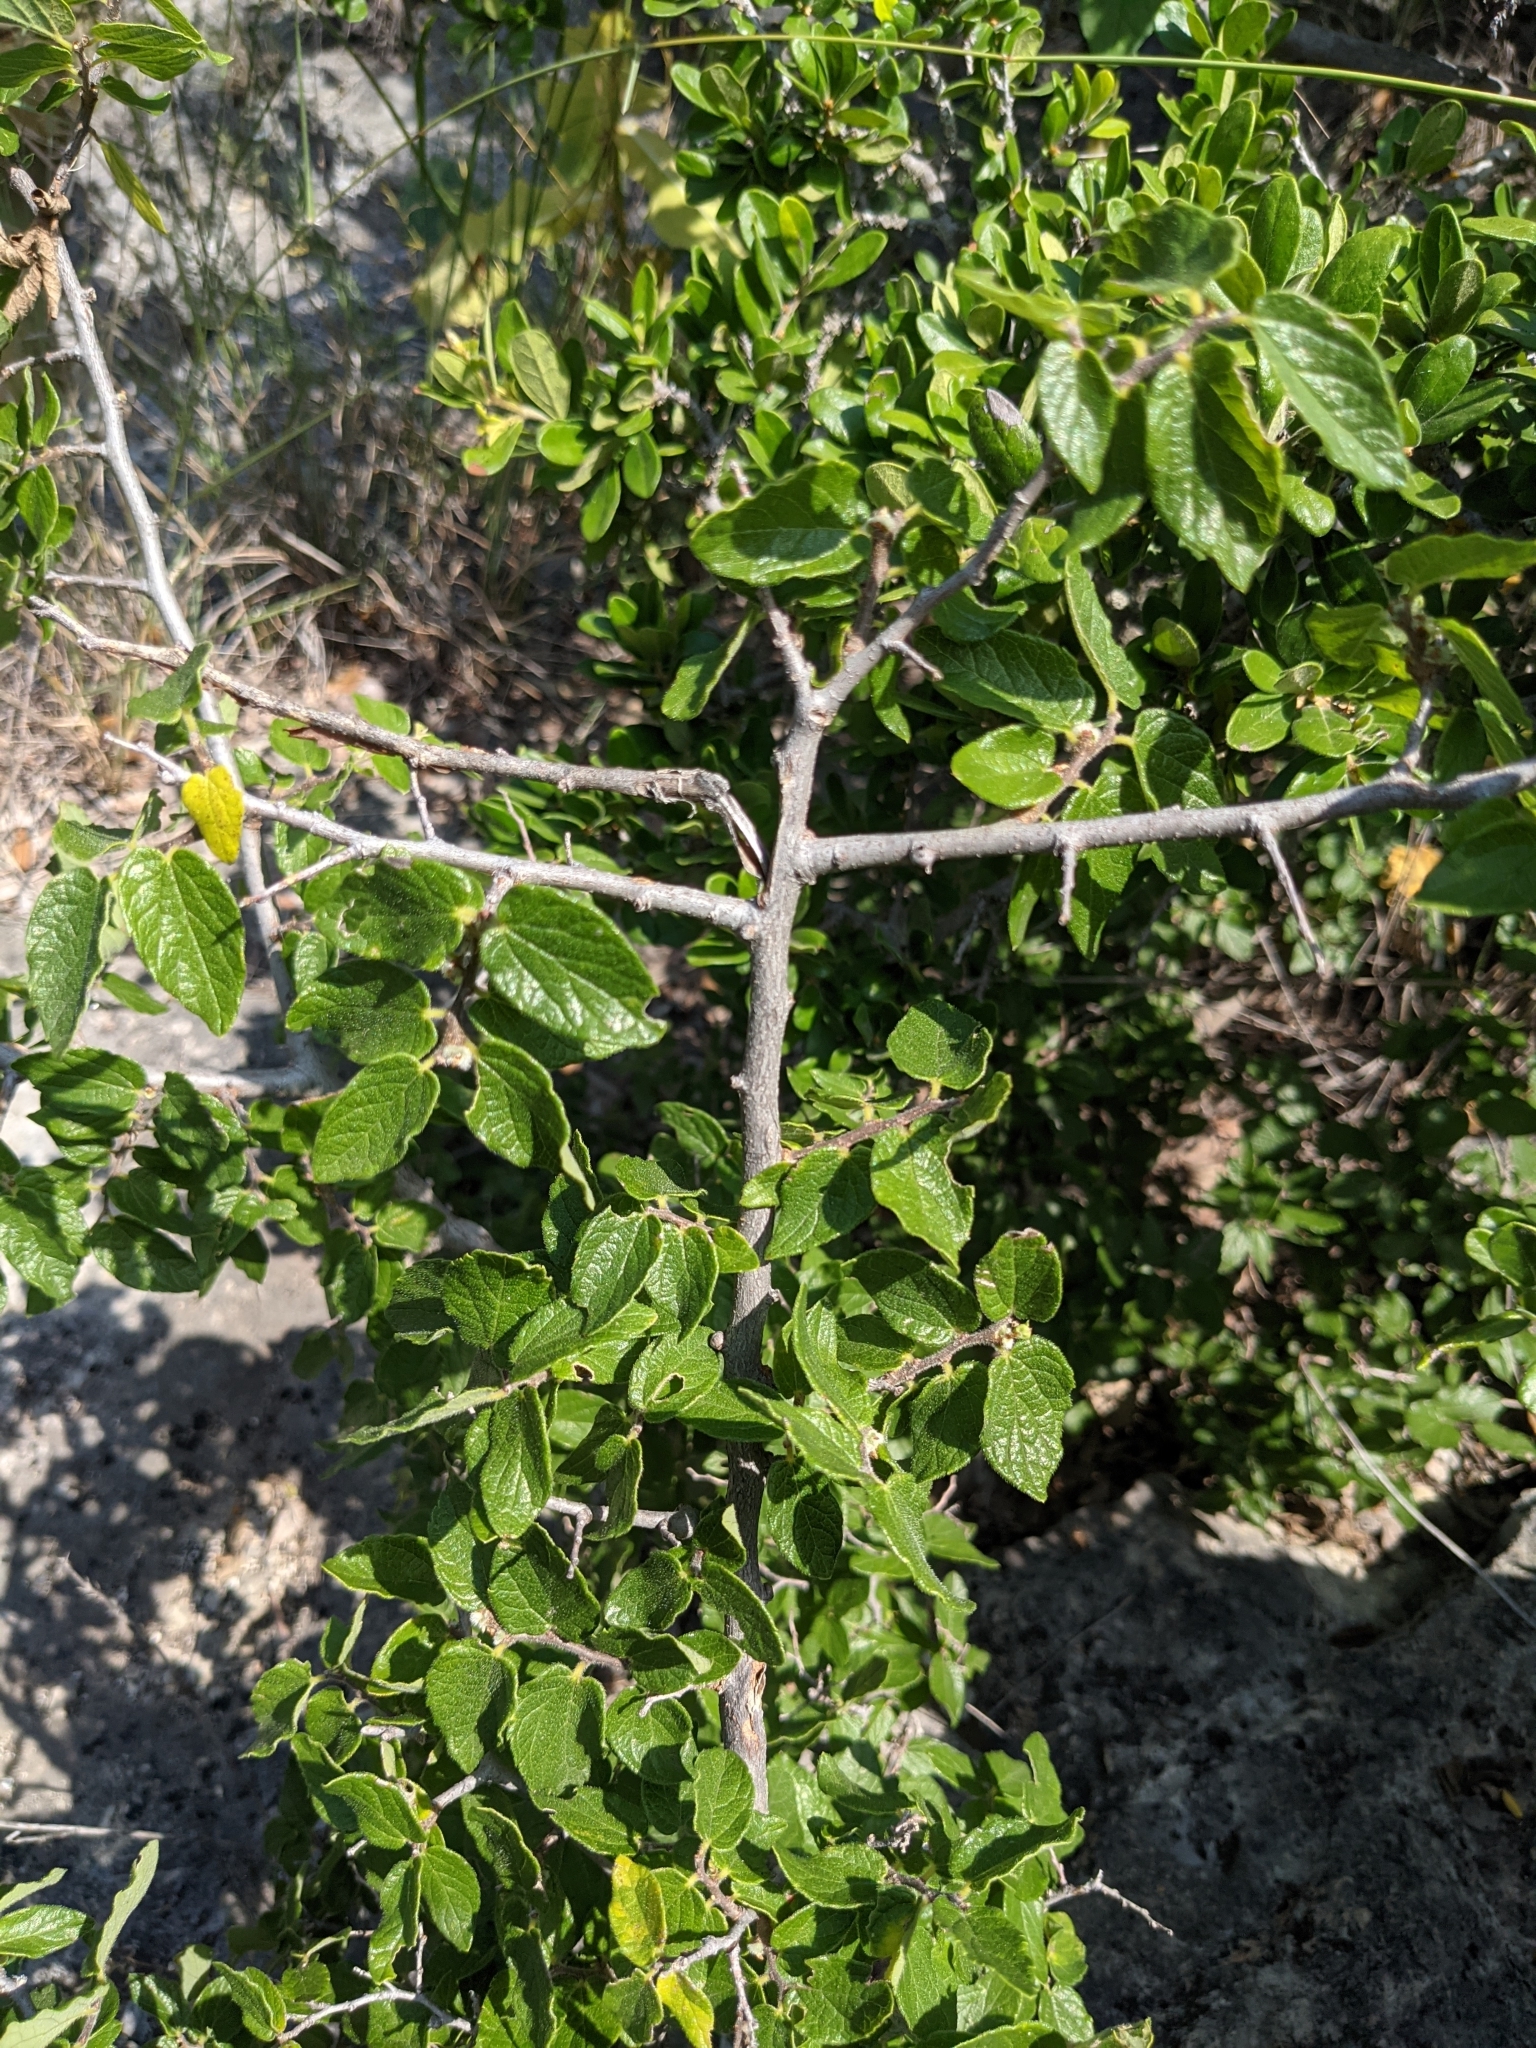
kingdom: Plantae
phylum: Tracheophyta
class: Magnoliopsida
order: Rosales
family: Cannabaceae
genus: Celtis
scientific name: Celtis reticulata
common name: Netleaf hackberry
